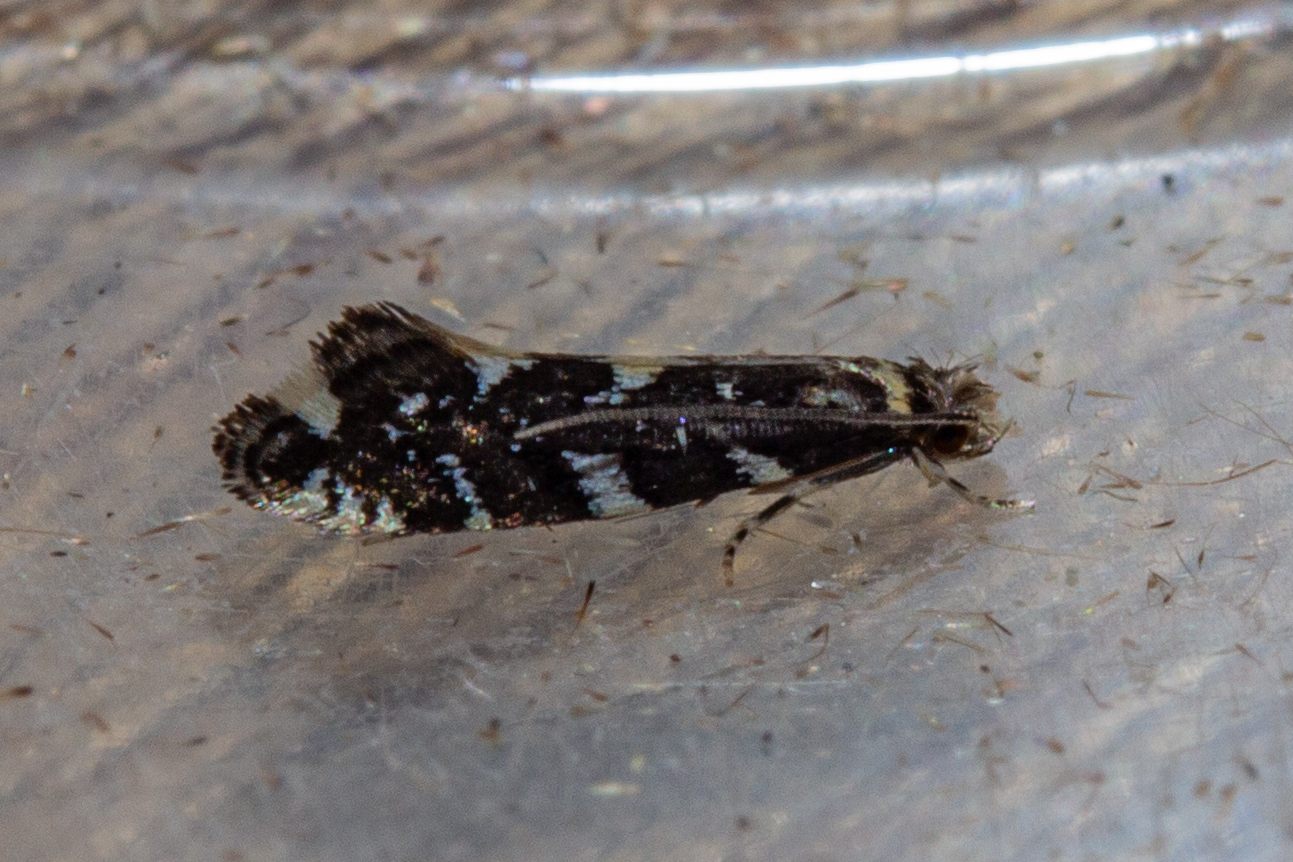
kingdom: Animalia
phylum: Arthropoda
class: Insecta
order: Lepidoptera
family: Tineidae
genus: Tinea
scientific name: Tinea margaritis
